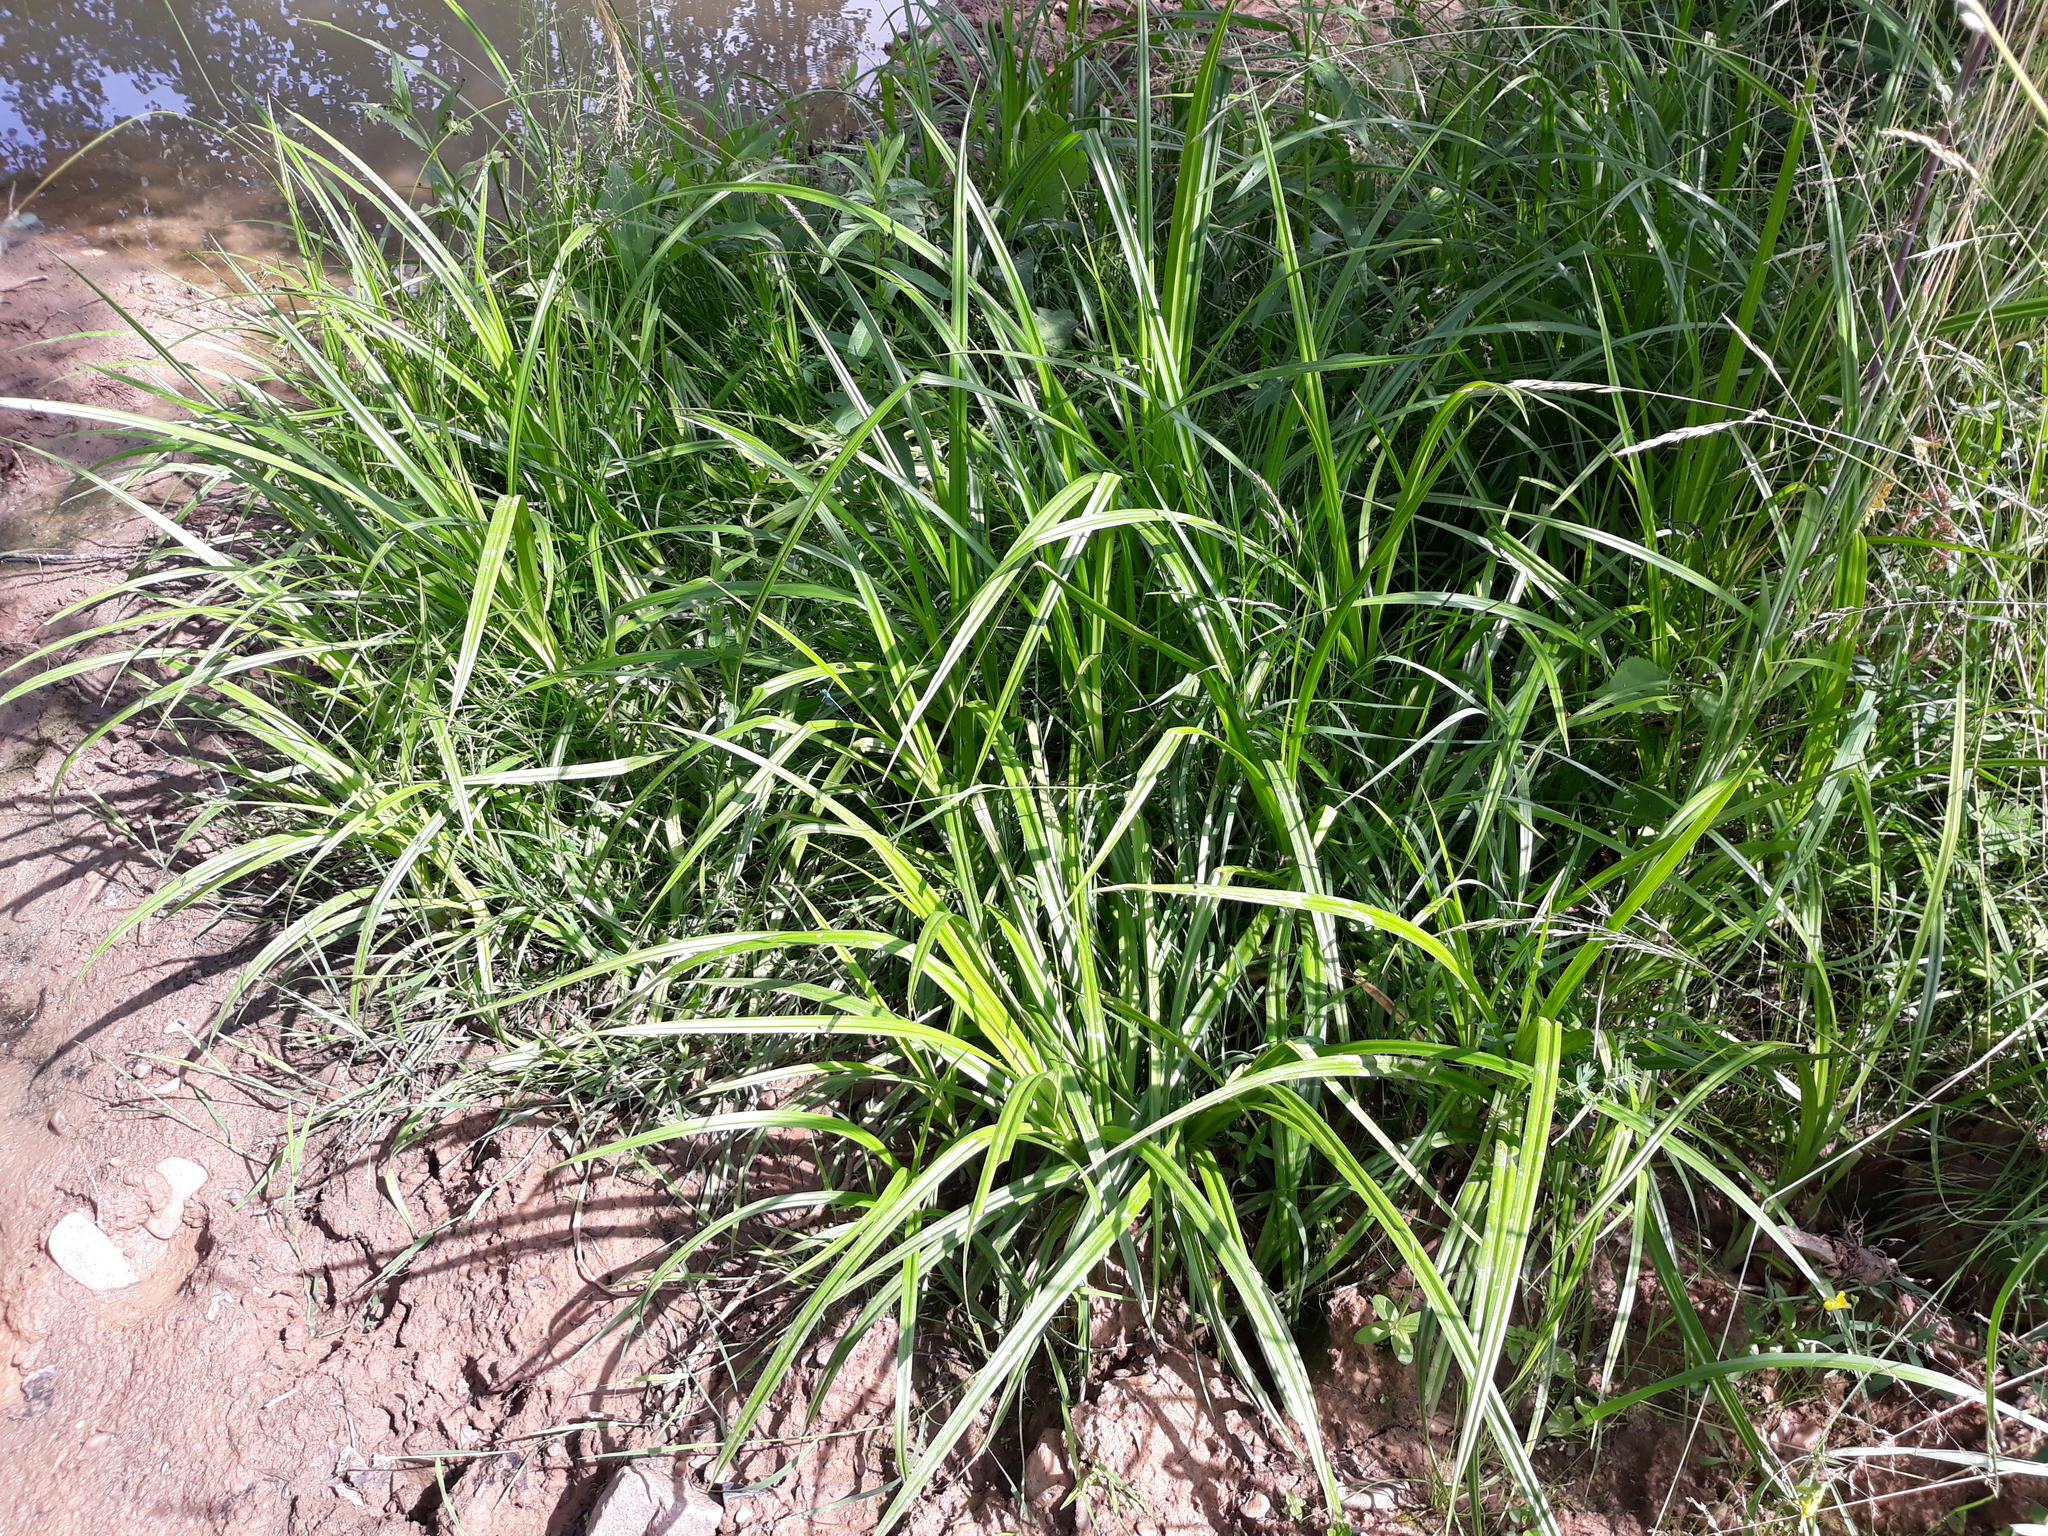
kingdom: Plantae
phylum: Tracheophyta
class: Liliopsida
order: Poales
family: Cyperaceae
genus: Scirpus
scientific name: Scirpus sylvaticus
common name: Wood club-rush
